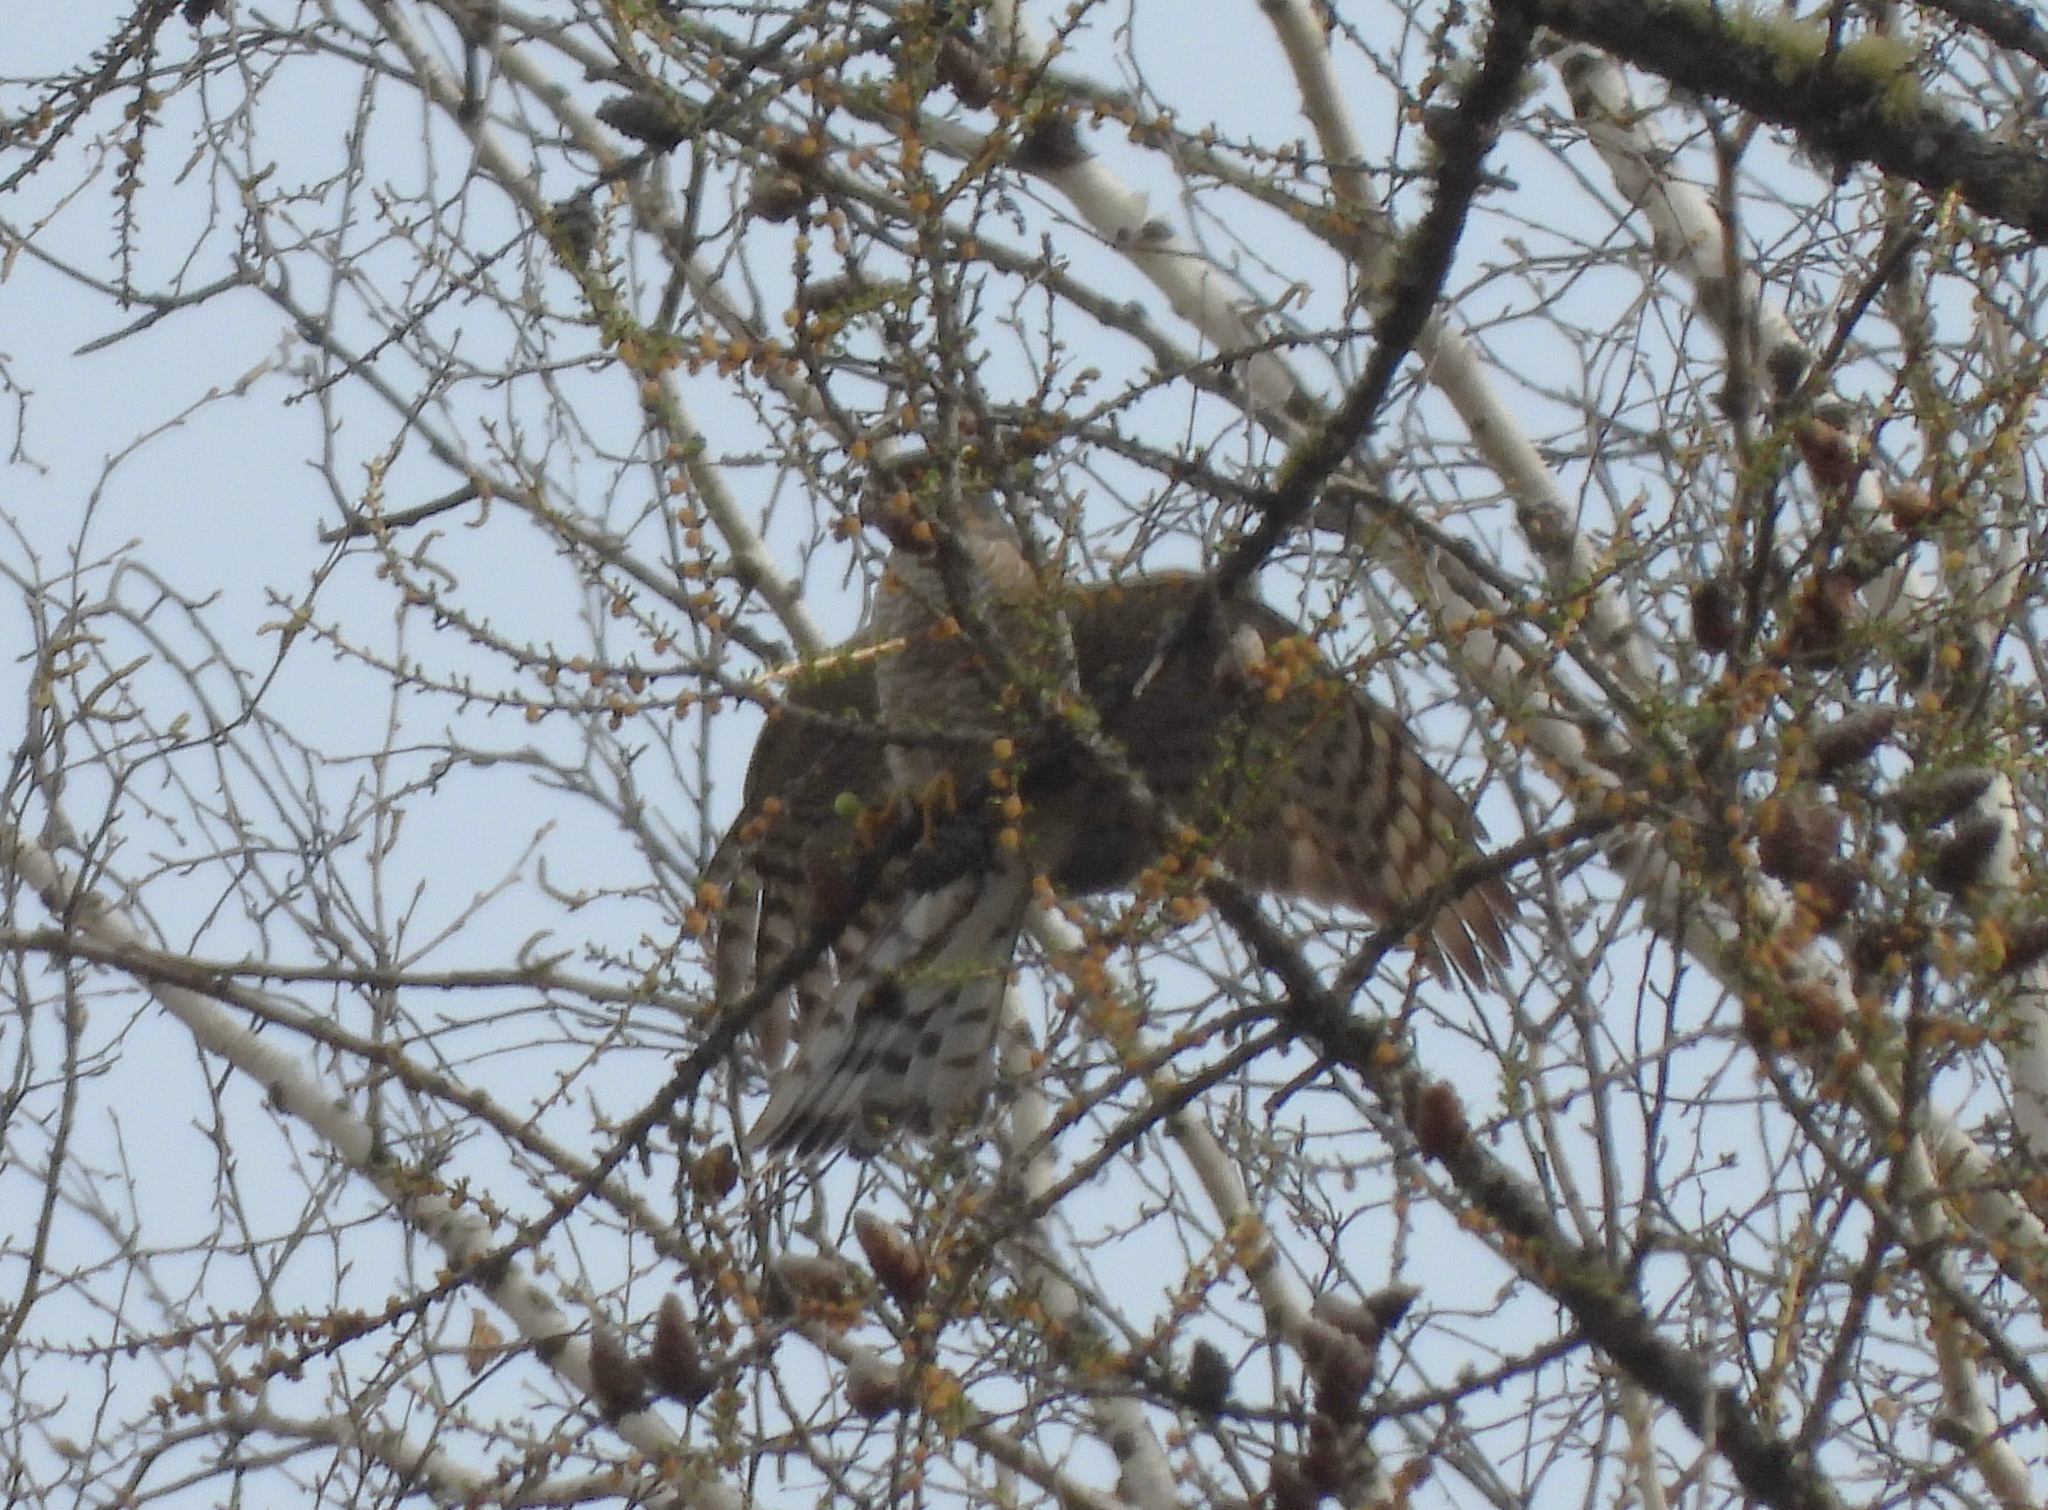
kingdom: Animalia
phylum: Chordata
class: Aves
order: Accipitriformes
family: Accipitridae
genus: Accipiter
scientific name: Accipiter nisus
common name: Eurasian sparrowhawk
